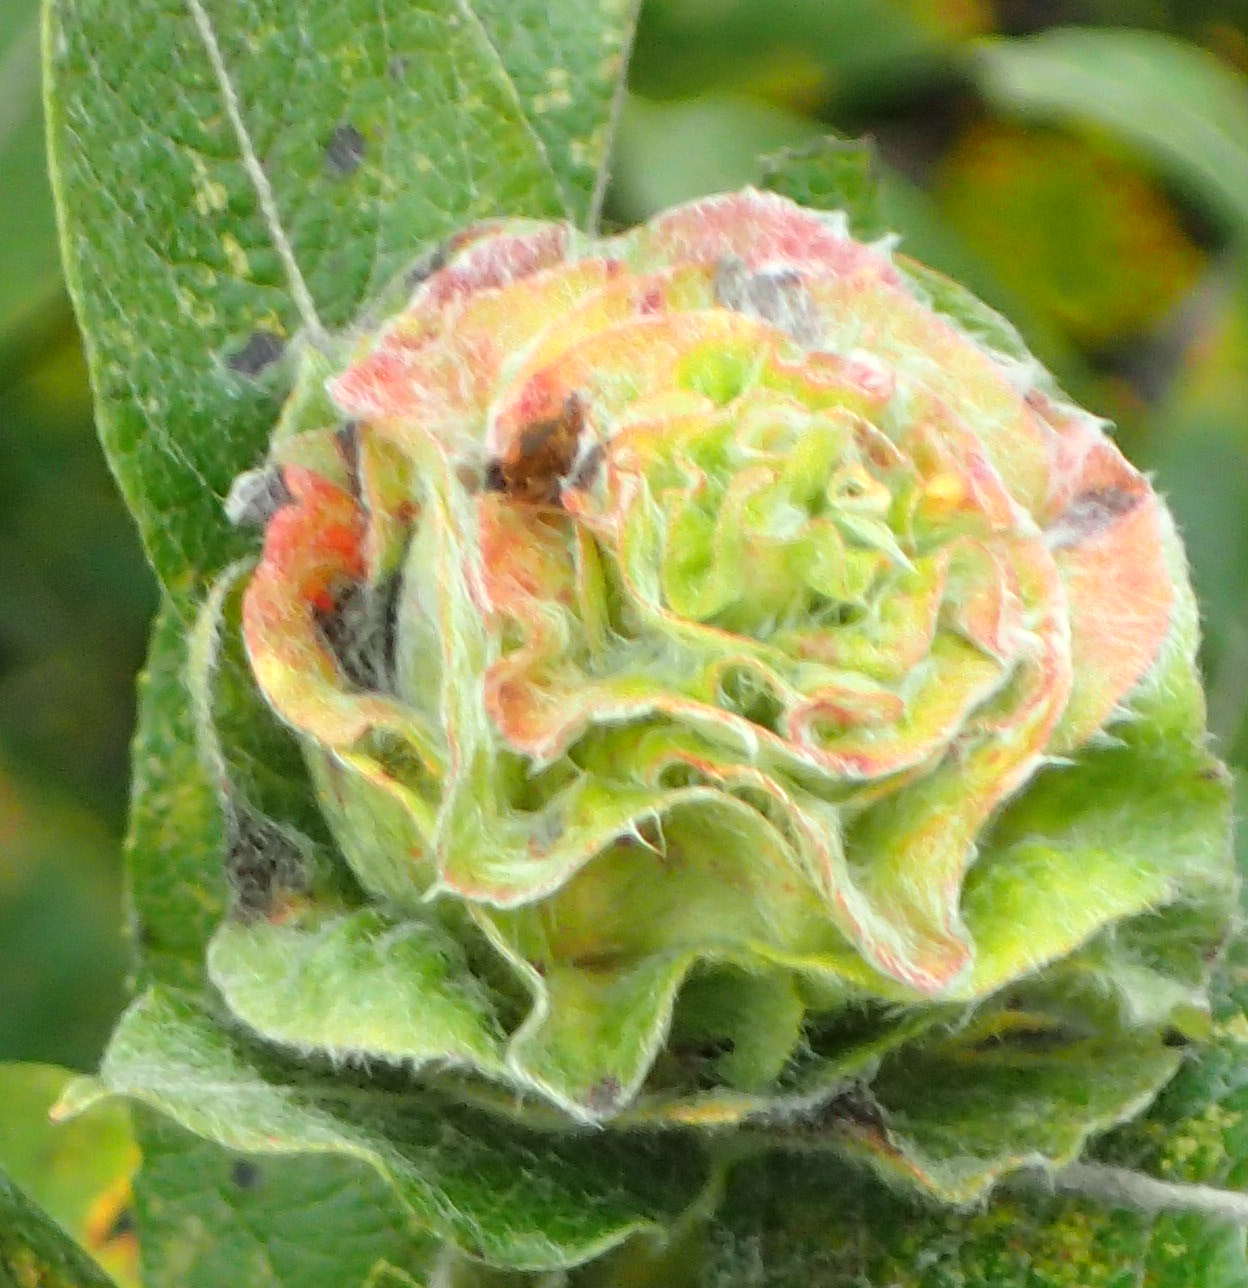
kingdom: Animalia
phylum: Arthropoda
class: Insecta
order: Diptera
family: Cecidomyiidae
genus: Rabdophaga
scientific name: Rabdophaga rosaria
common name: Willow rose gall midge
